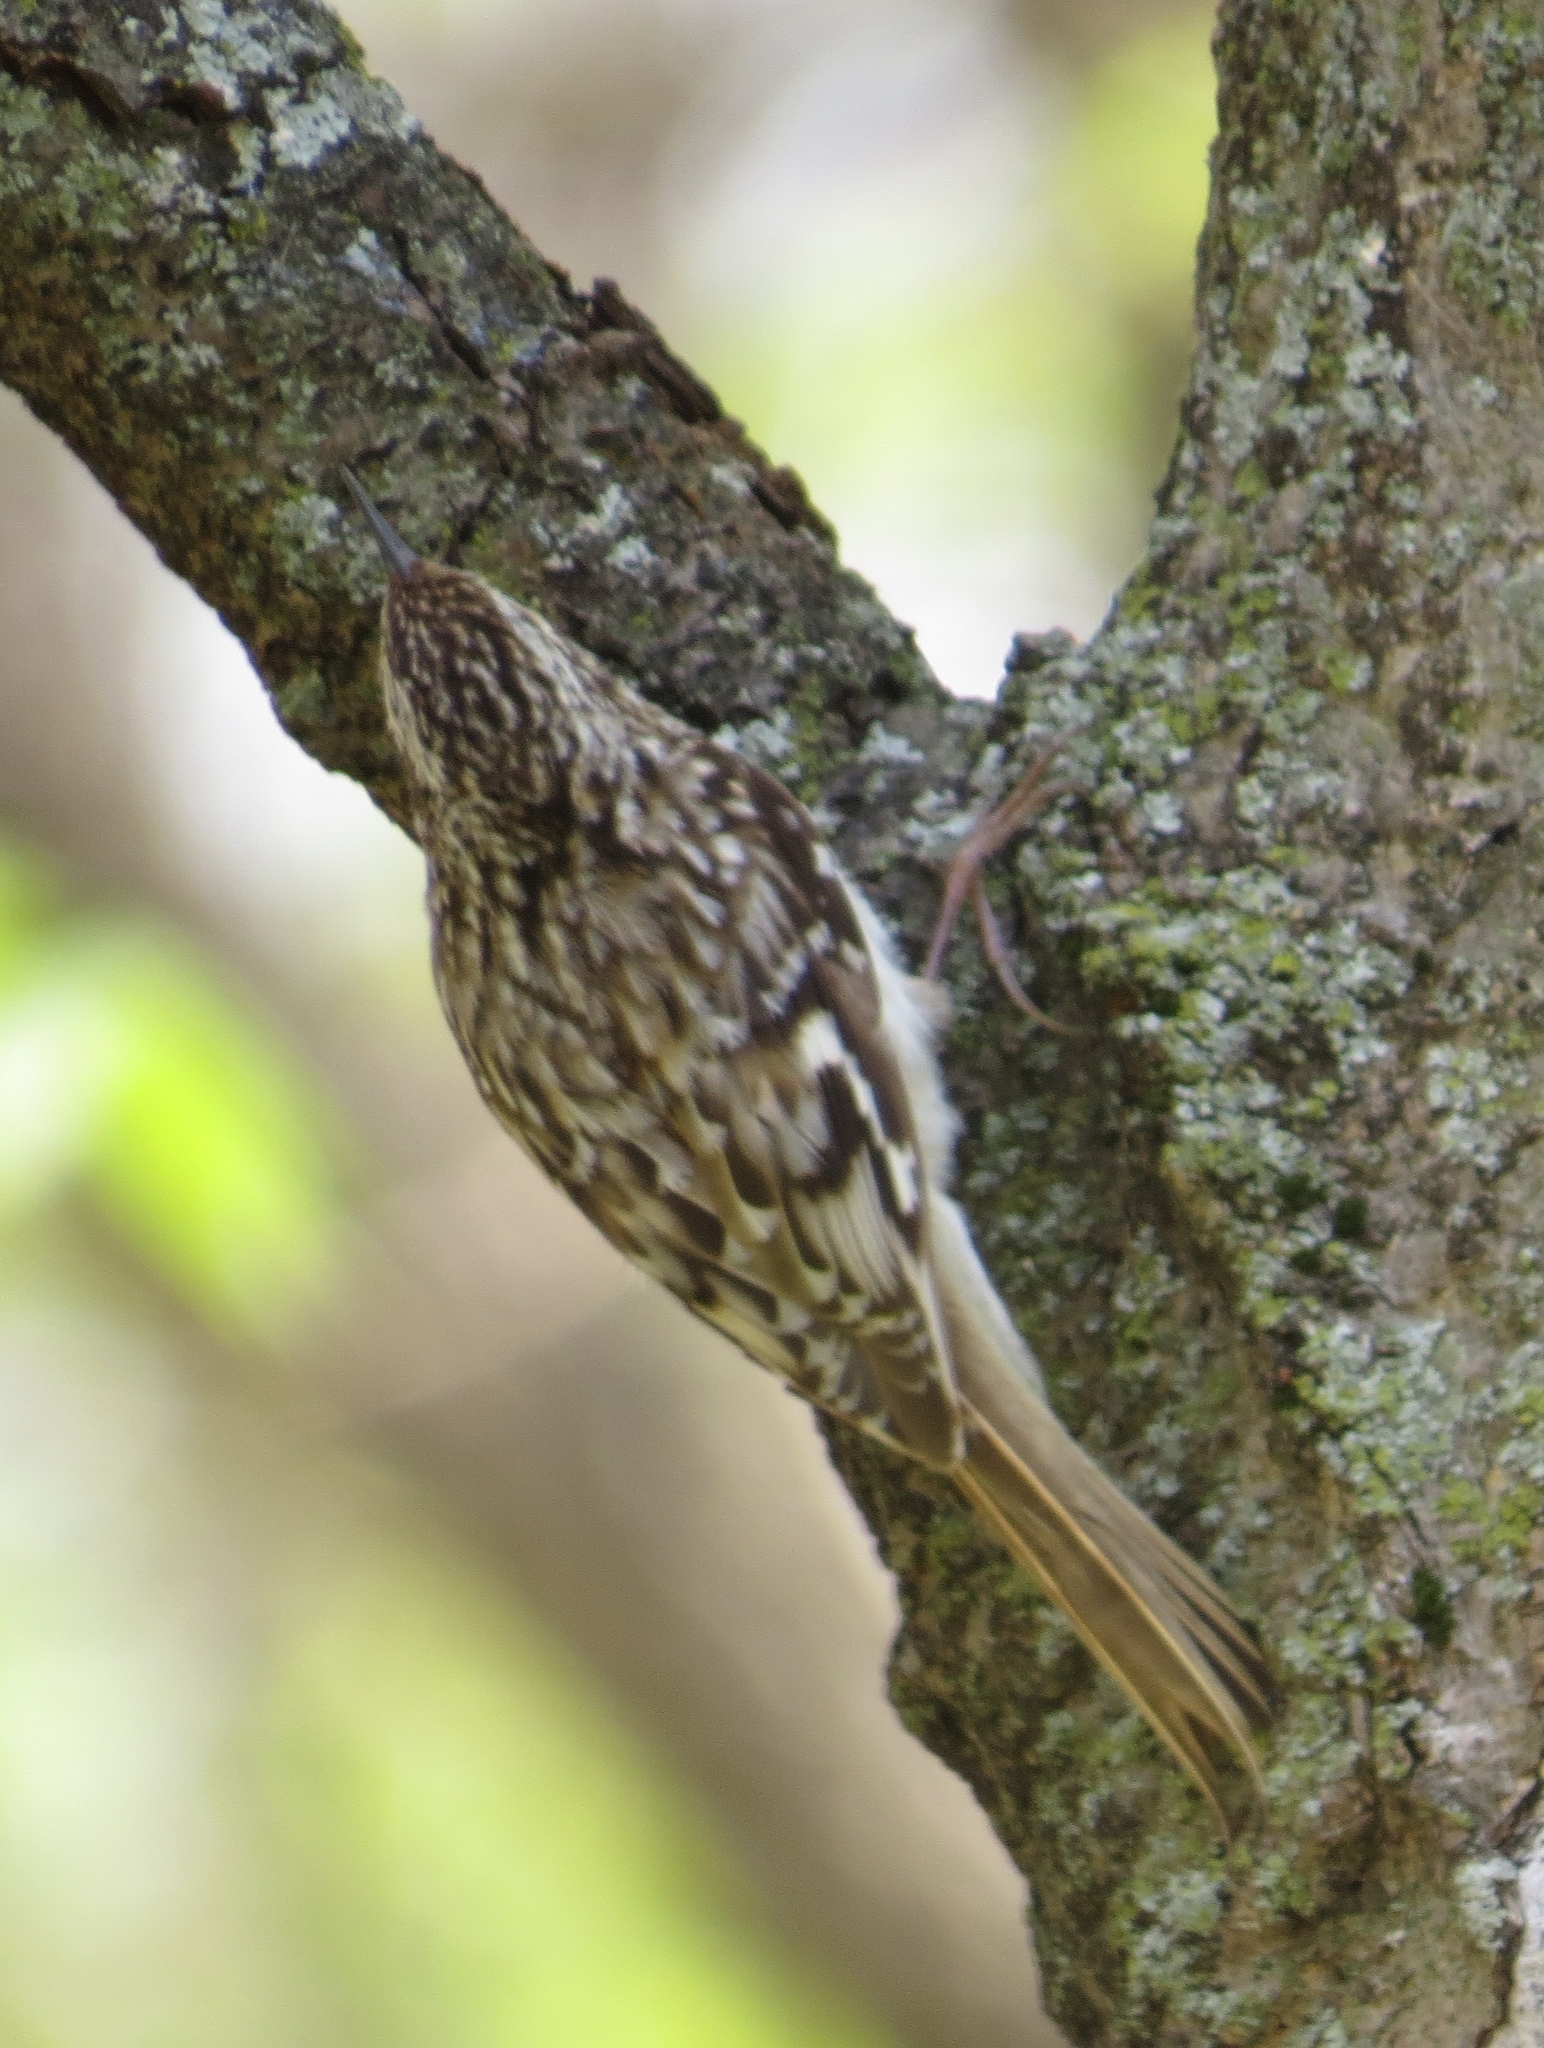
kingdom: Animalia
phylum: Chordata
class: Aves
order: Passeriformes
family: Certhiidae
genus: Certhia
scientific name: Certhia americana
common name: Brown creeper
